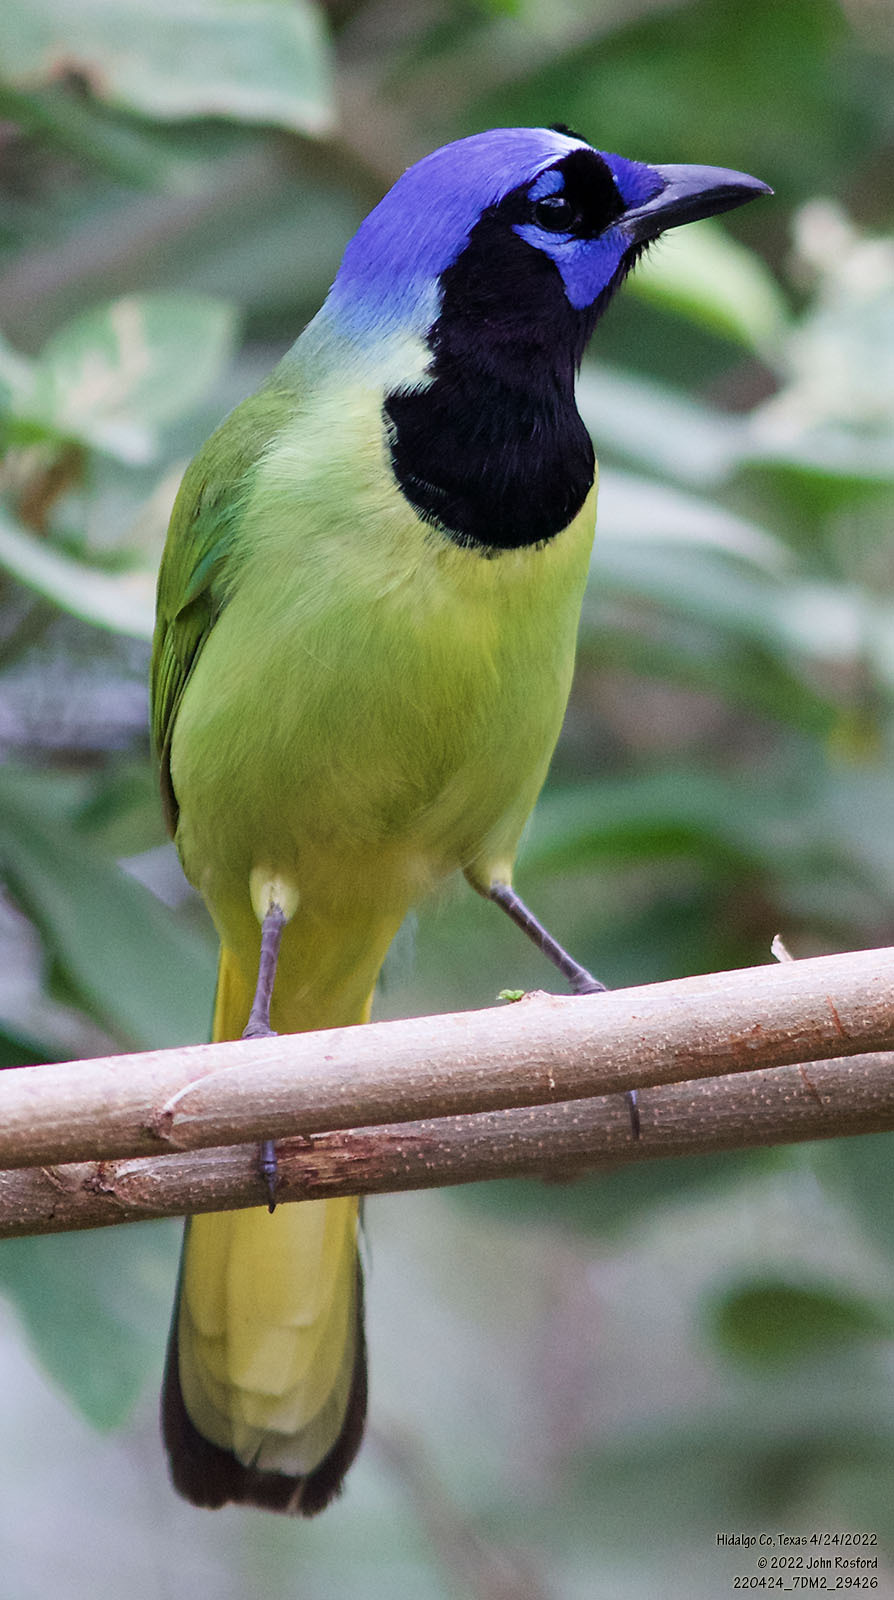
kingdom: Animalia
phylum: Chordata
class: Aves
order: Passeriformes
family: Corvidae
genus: Cyanocorax
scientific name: Cyanocorax yncas
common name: Green jay
